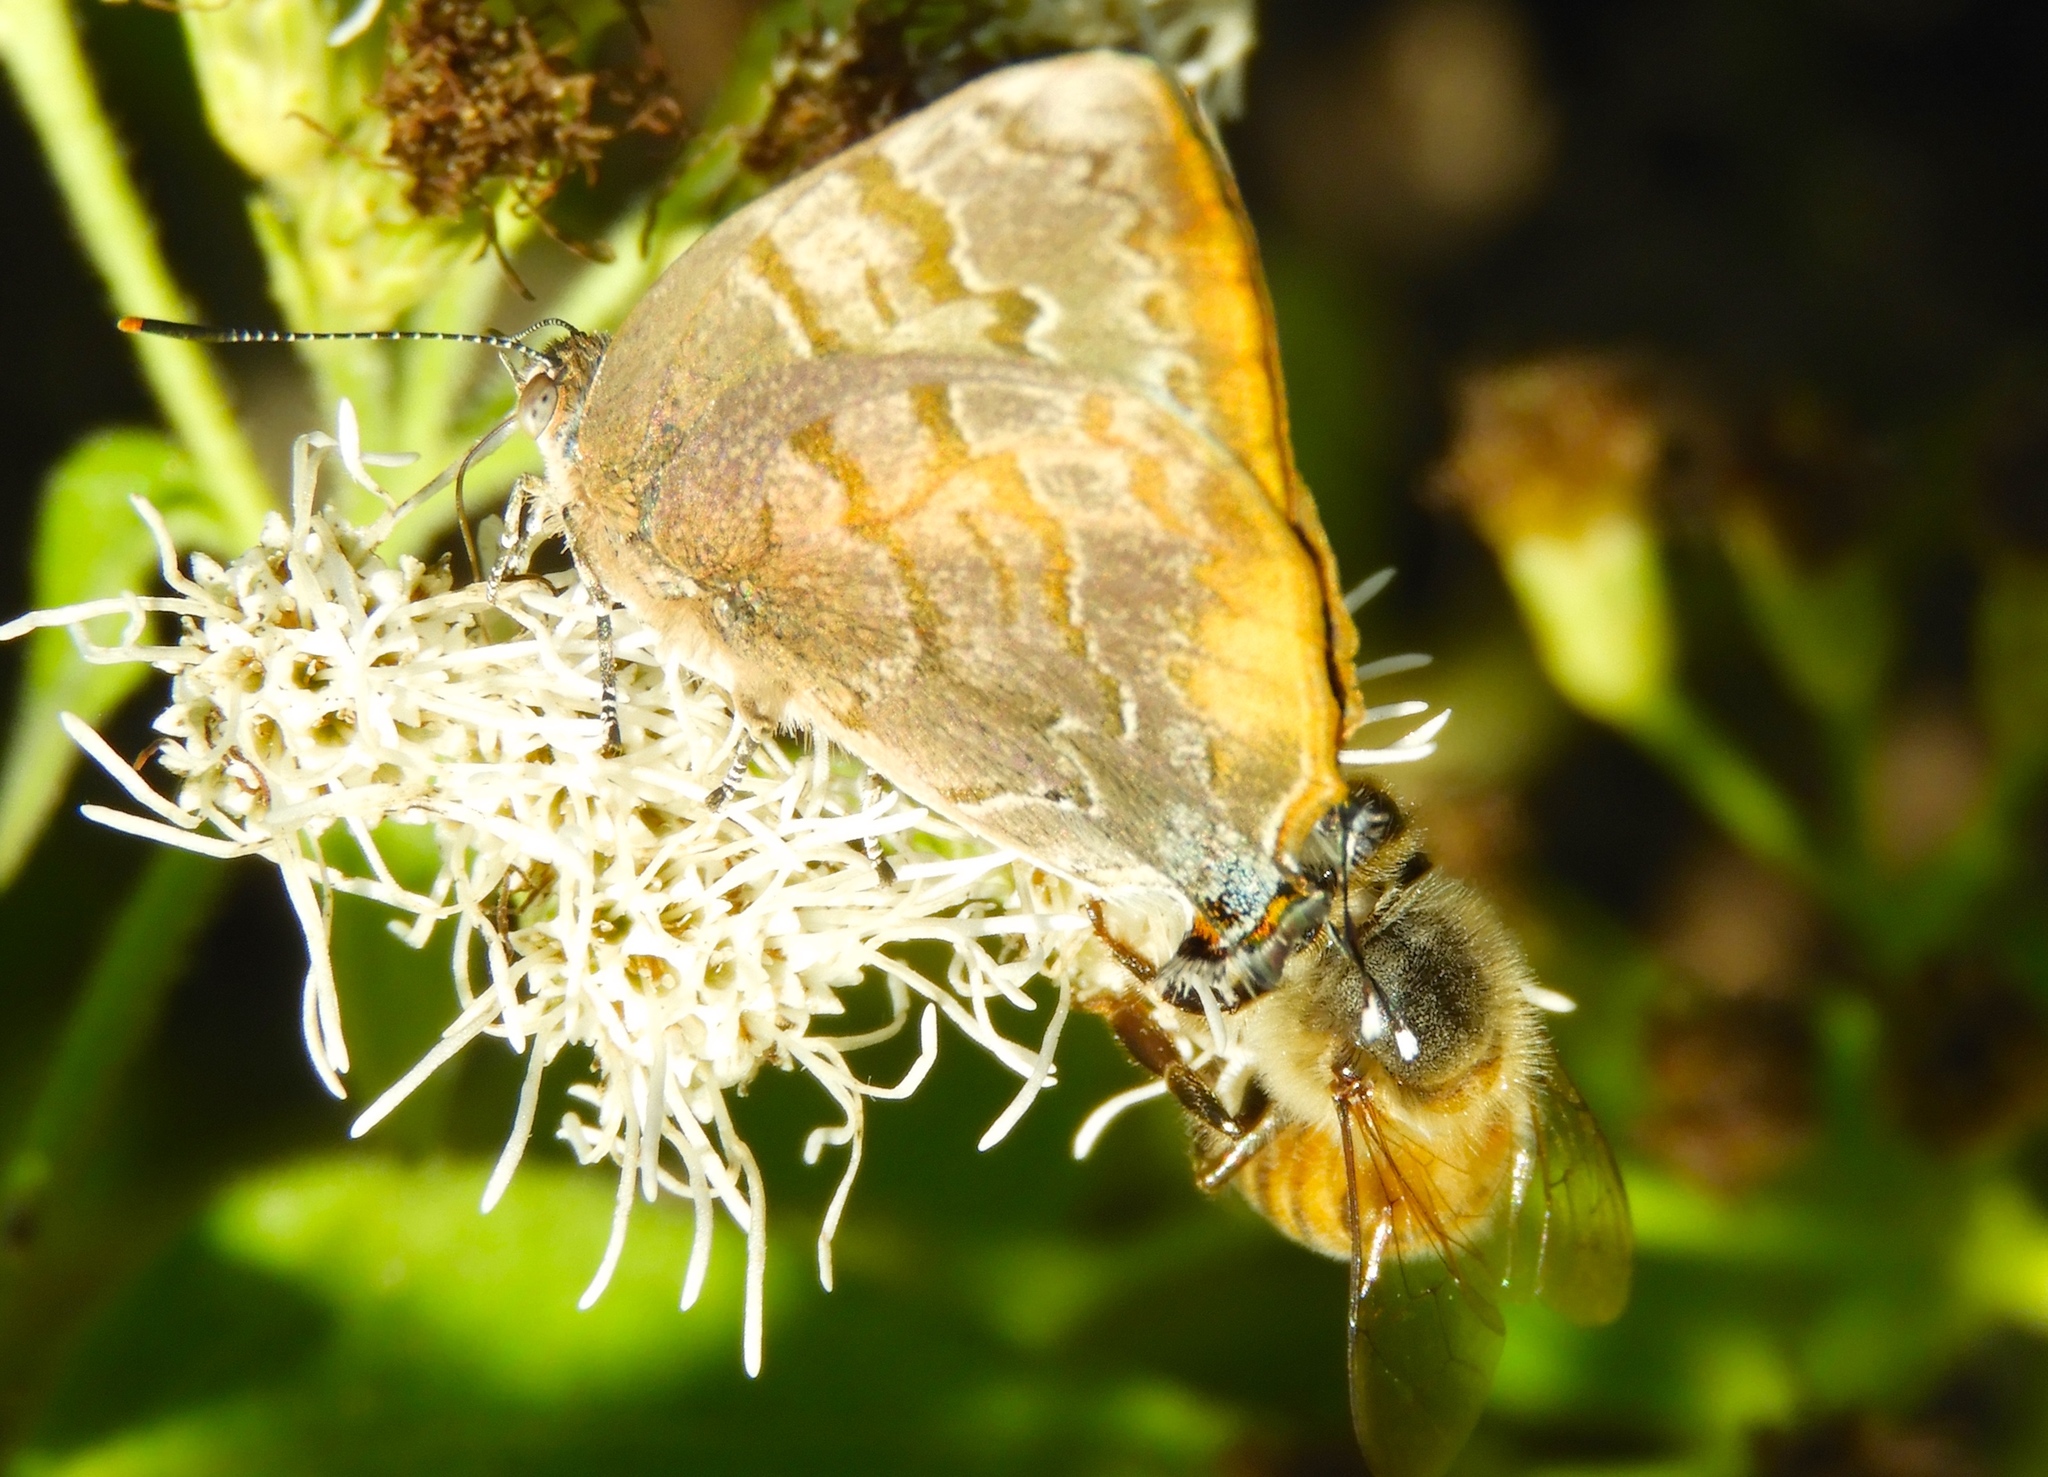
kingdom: Animalia
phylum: Arthropoda
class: Insecta
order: Lepidoptera
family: Lycaenidae
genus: Rekoa
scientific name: Rekoa palegon
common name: Gold-bordered hairstreak
